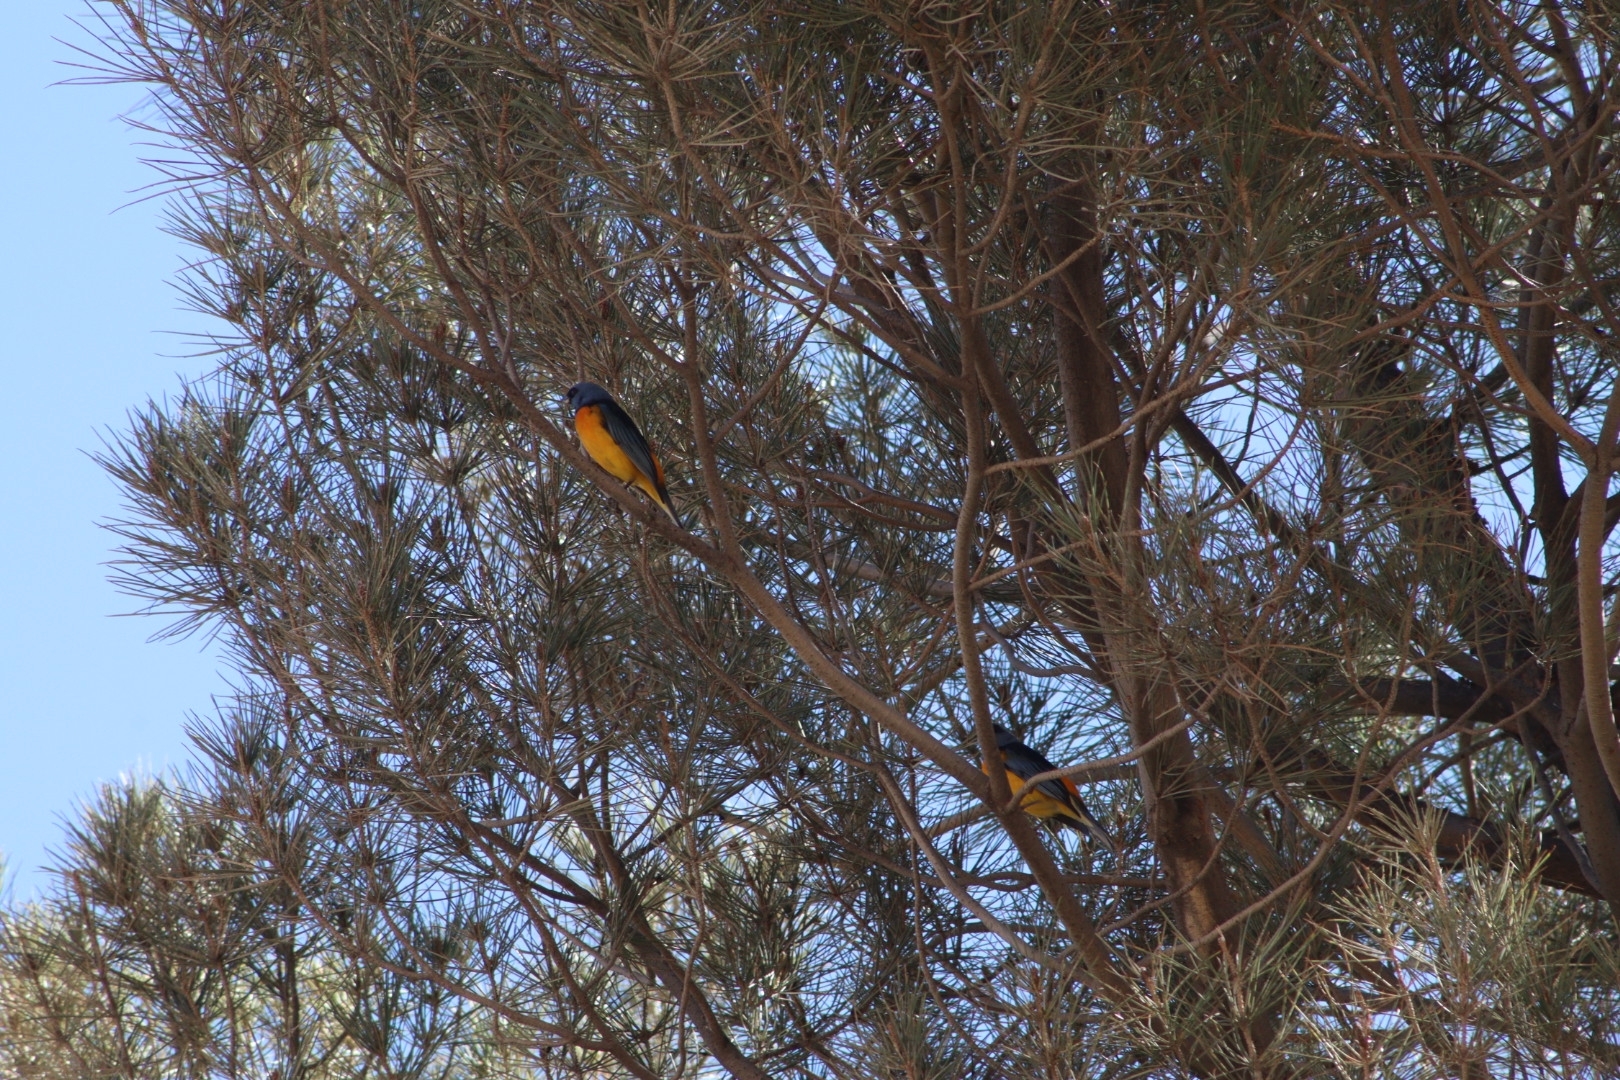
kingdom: Animalia
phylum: Chordata
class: Aves
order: Passeriformes
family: Thraupidae
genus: Rauenia
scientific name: Rauenia bonariensis
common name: Blue-and-yellow tanager
